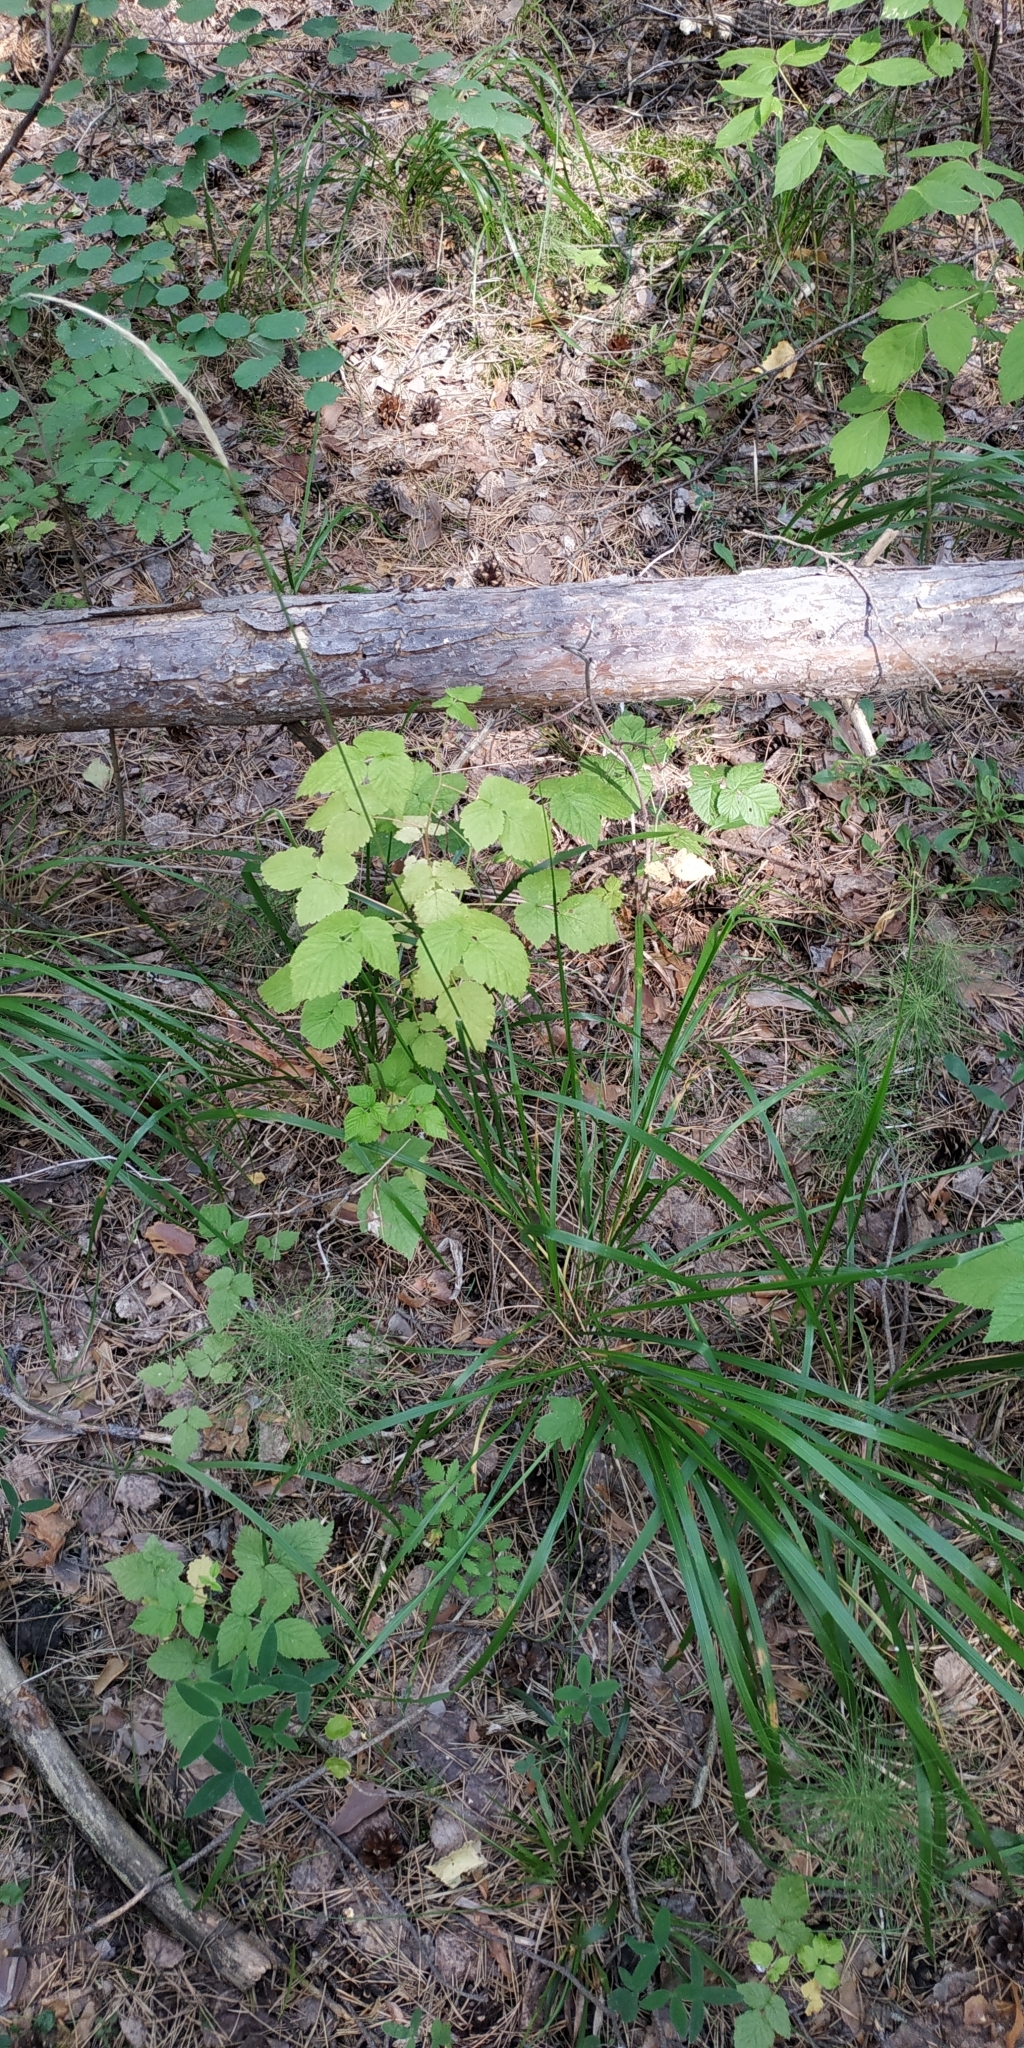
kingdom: Plantae
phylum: Tracheophyta
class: Liliopsida
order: Poales
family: Poaceae
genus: Calamagrostis
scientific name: Calamagrostis arundinacea
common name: Metskastik
